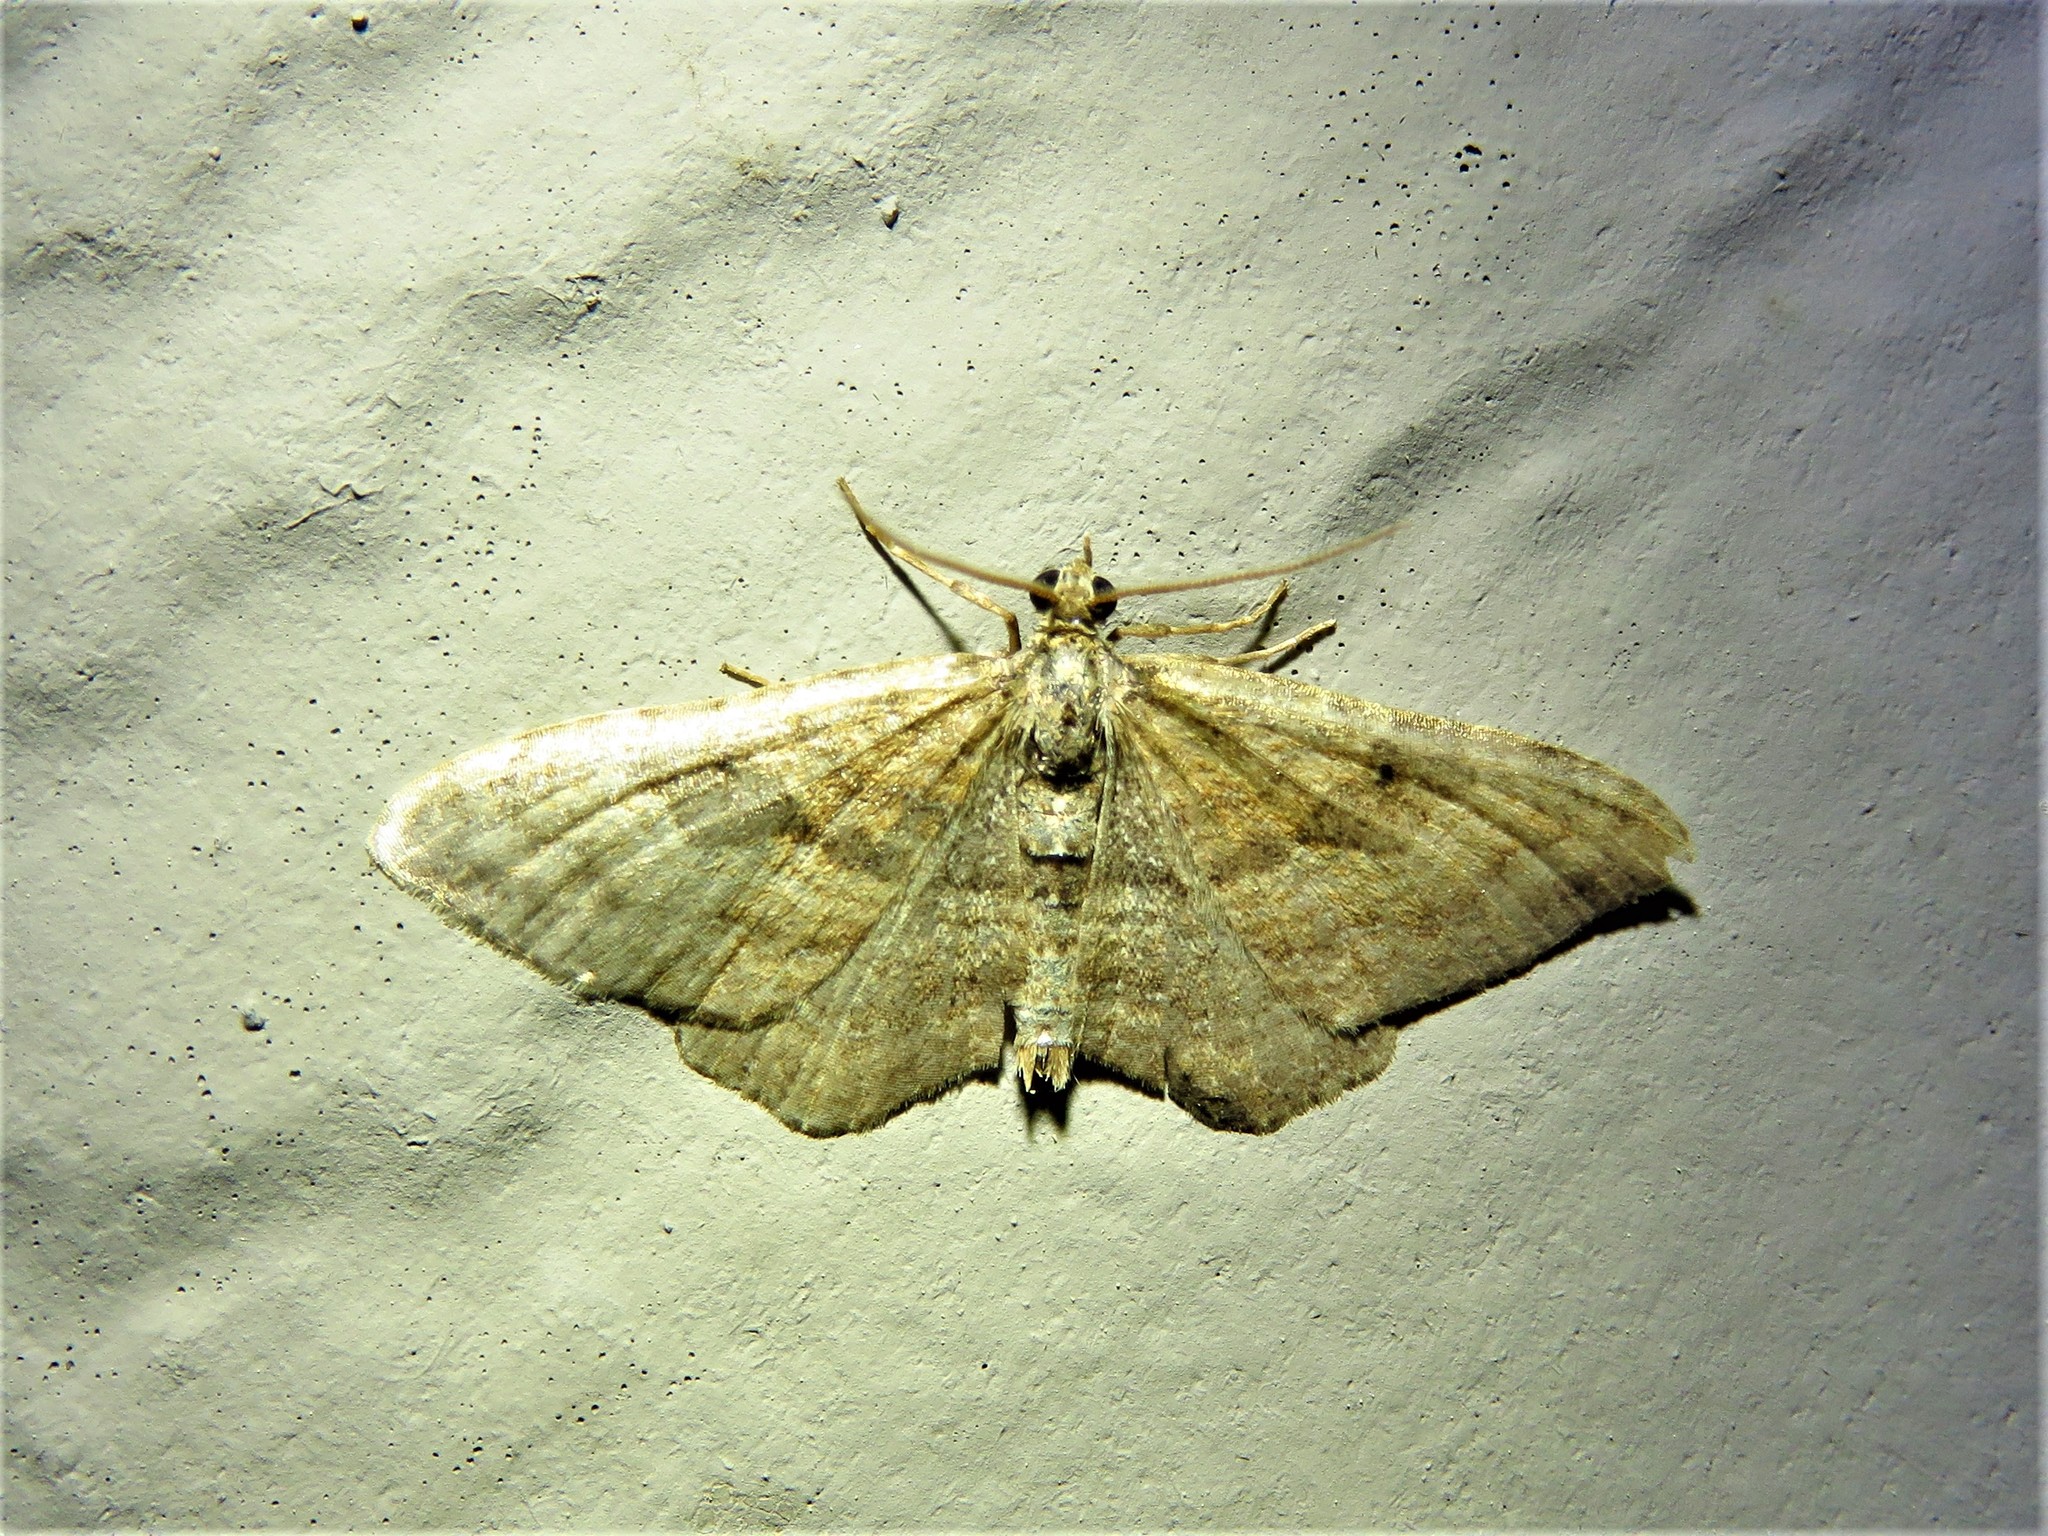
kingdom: Animalia
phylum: Arthropoda
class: Insecta
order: Lepidoptera
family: Geometridae
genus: Orthonama
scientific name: Orthonama obstipata
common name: The gem
